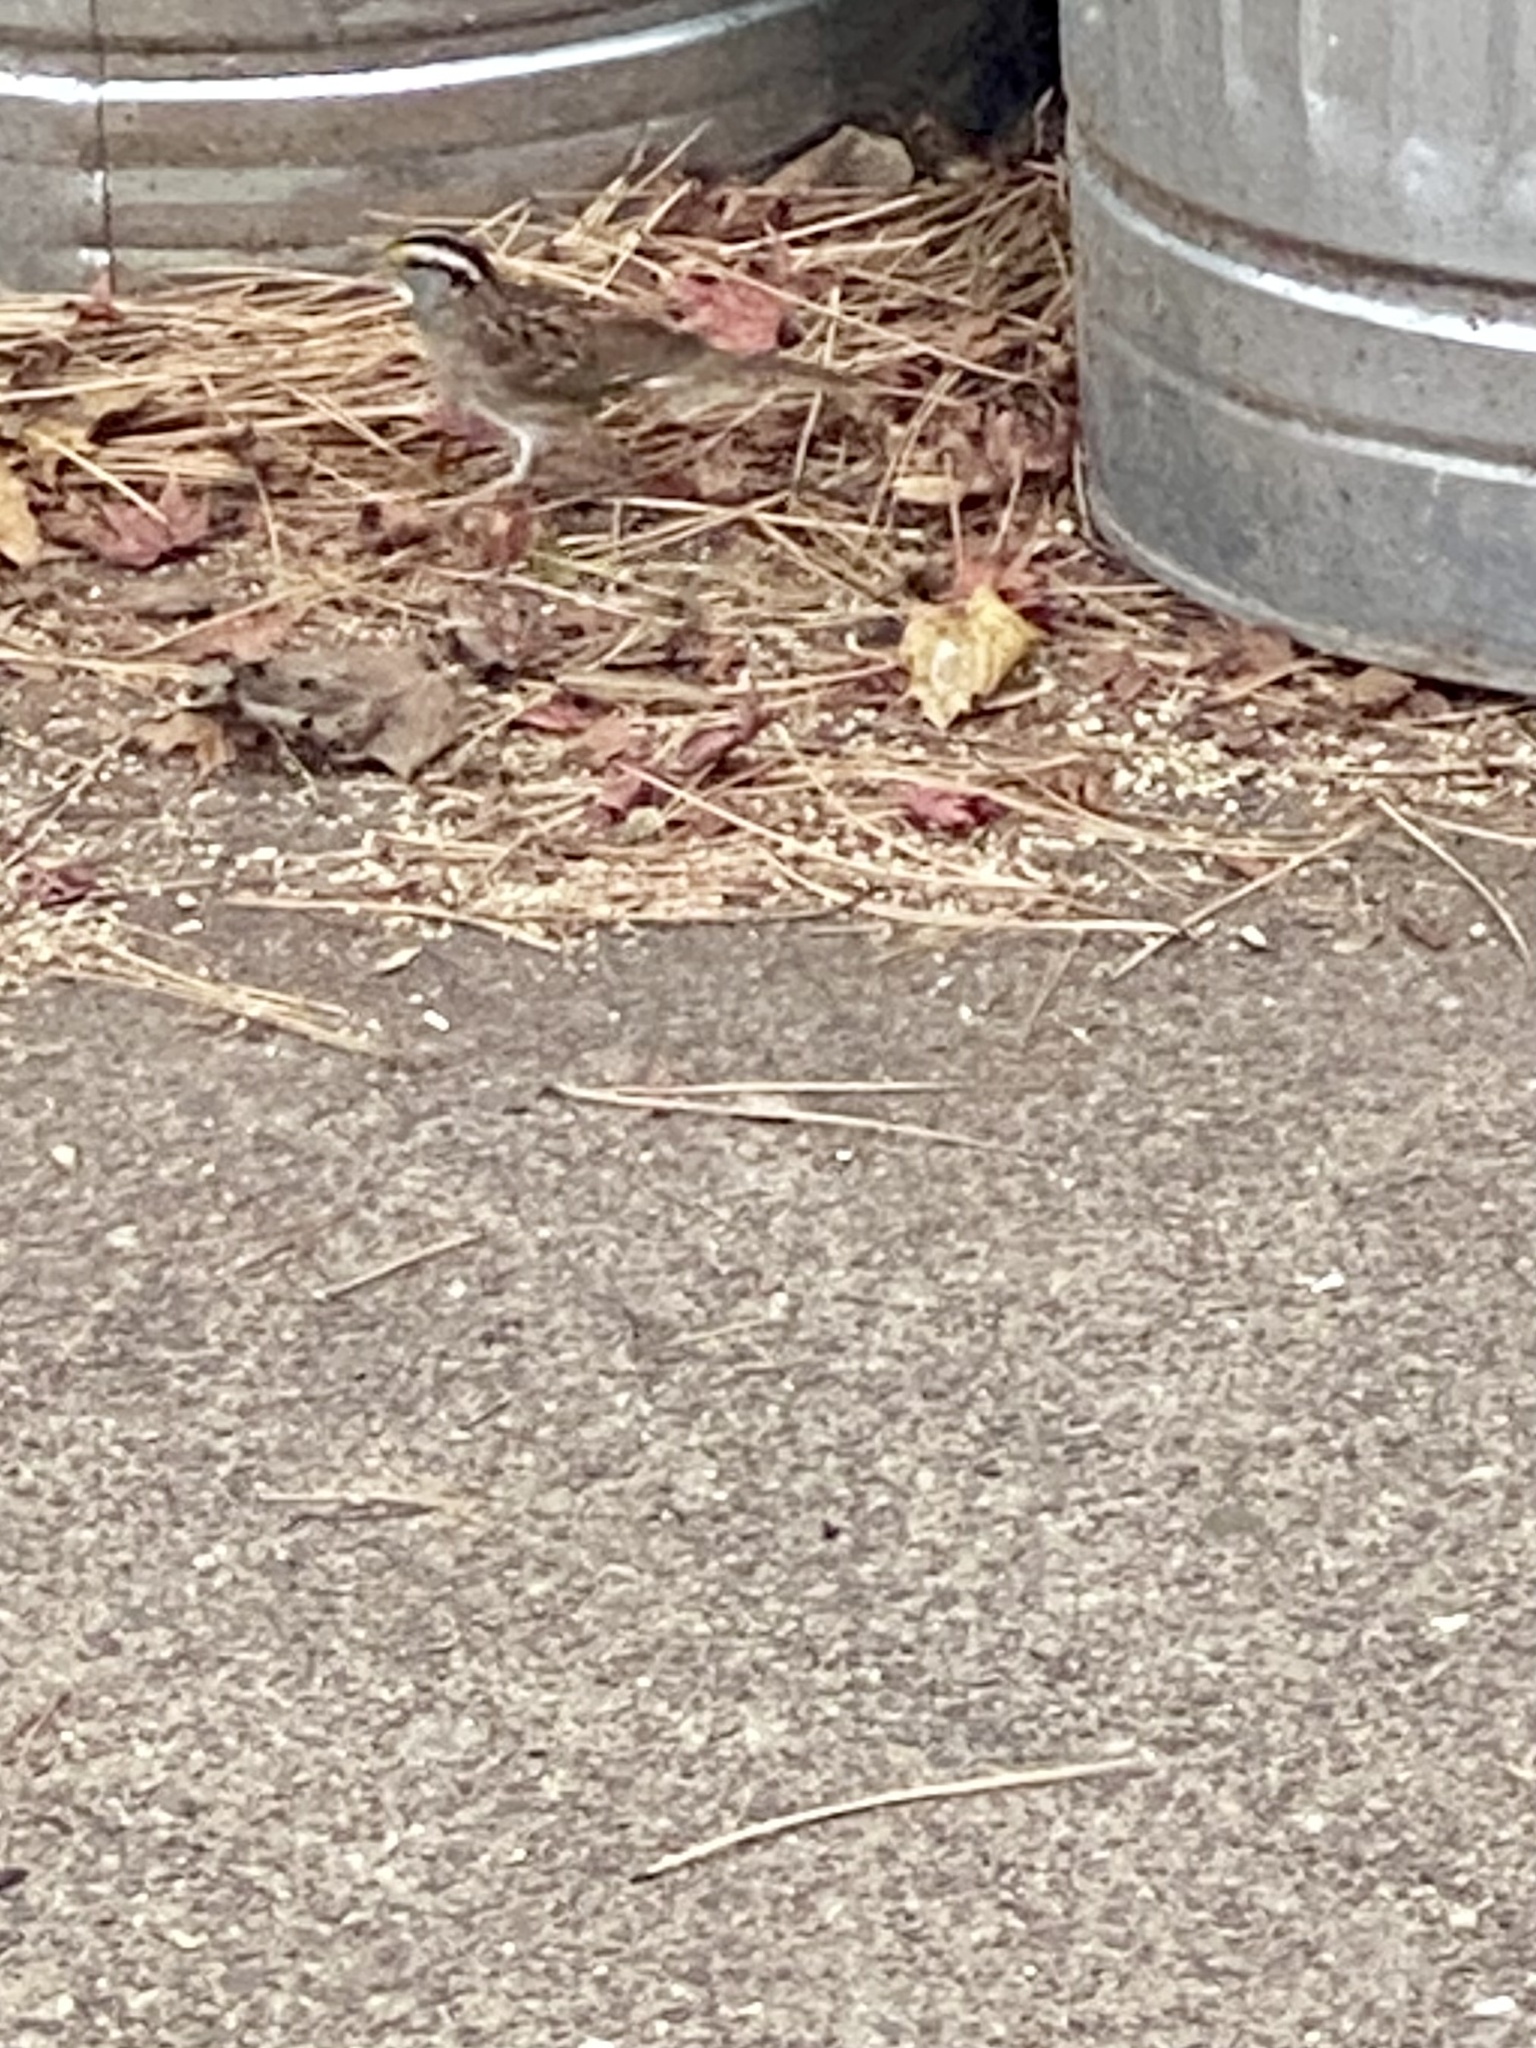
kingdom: Animalia
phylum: Chordata
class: Aves
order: Passeriformes
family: Passerellidae
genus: Zonotrichia
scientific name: Zonotrichia albicollis
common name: White-throated sparrow
